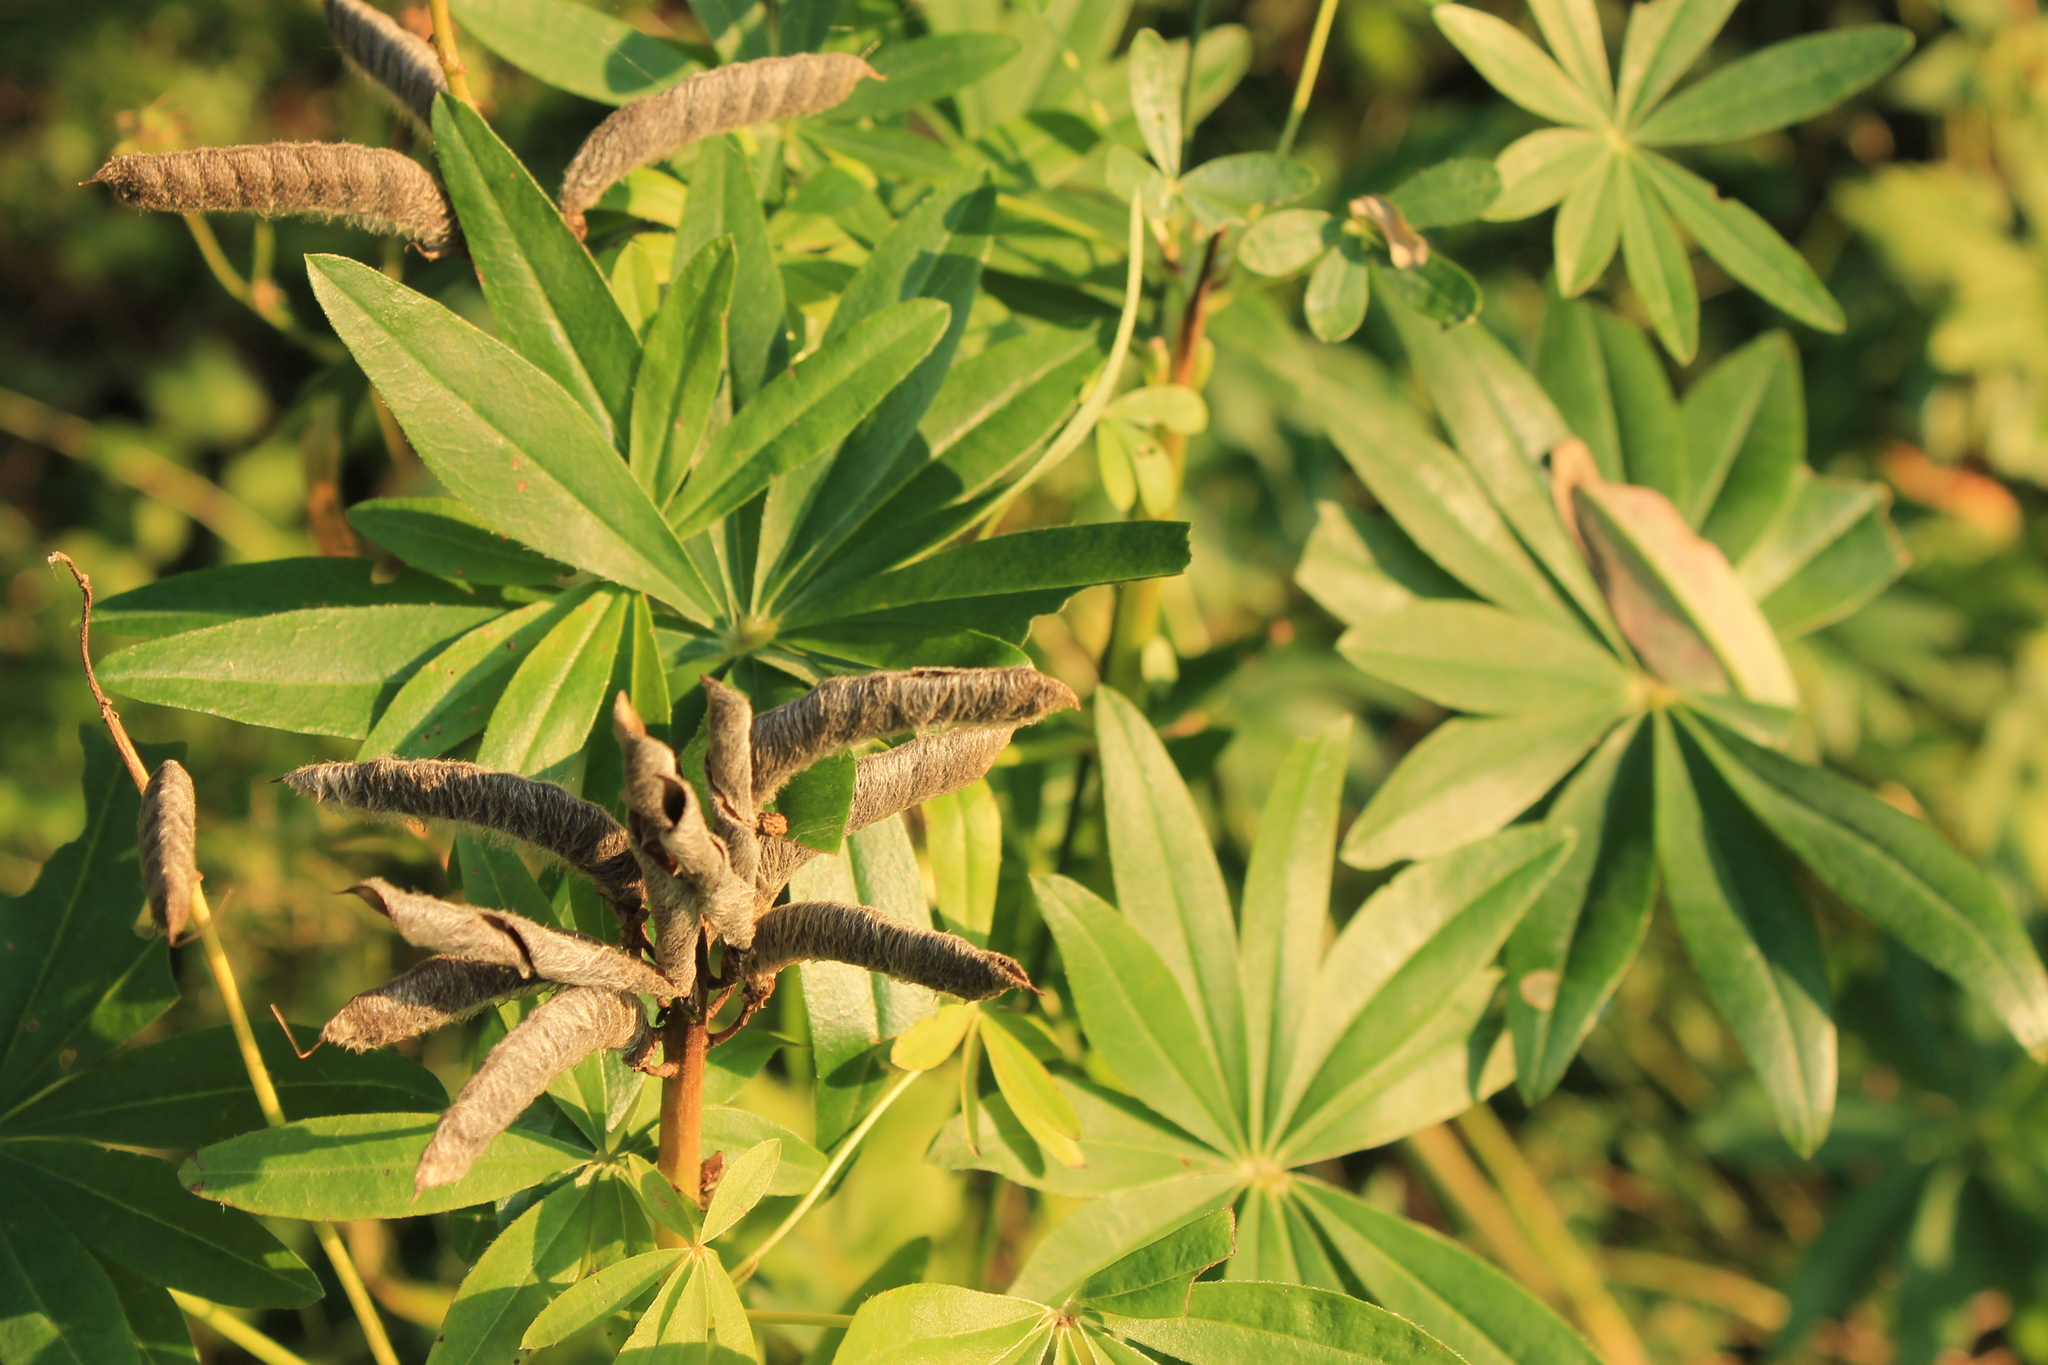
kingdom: Plantae
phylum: Tracheophyta
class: Magnoliopsida
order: Fabales
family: Fabaceae
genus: Lupinus
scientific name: Lupinus polyphyllus
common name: Garden lupin
